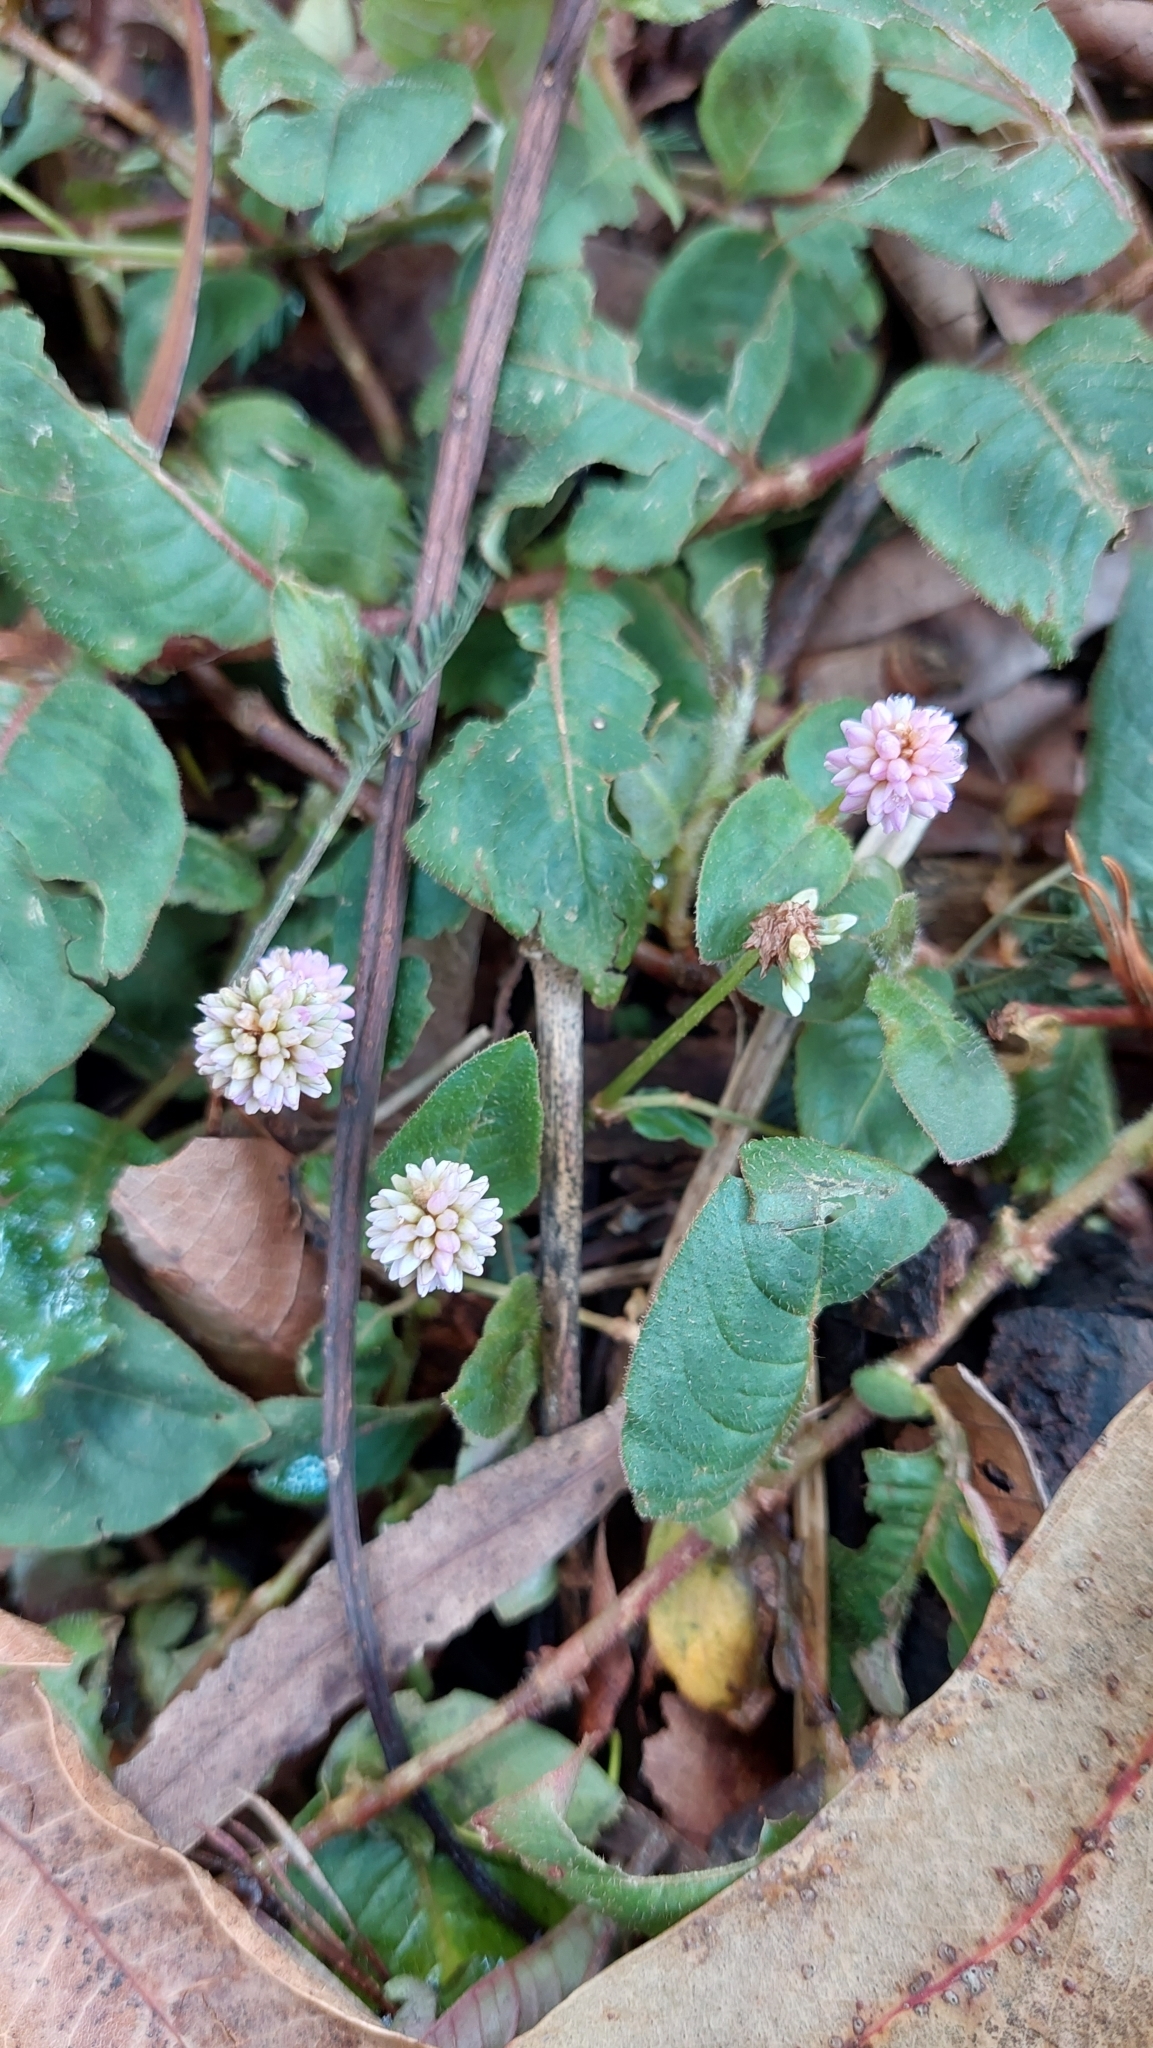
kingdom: Plantae
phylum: Tracheophyta
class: Magnoliopsida
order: Caryophyllales
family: Polygonaceae
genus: Persicaria
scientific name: Persicaria capitata
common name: Pinkhead smartweed
